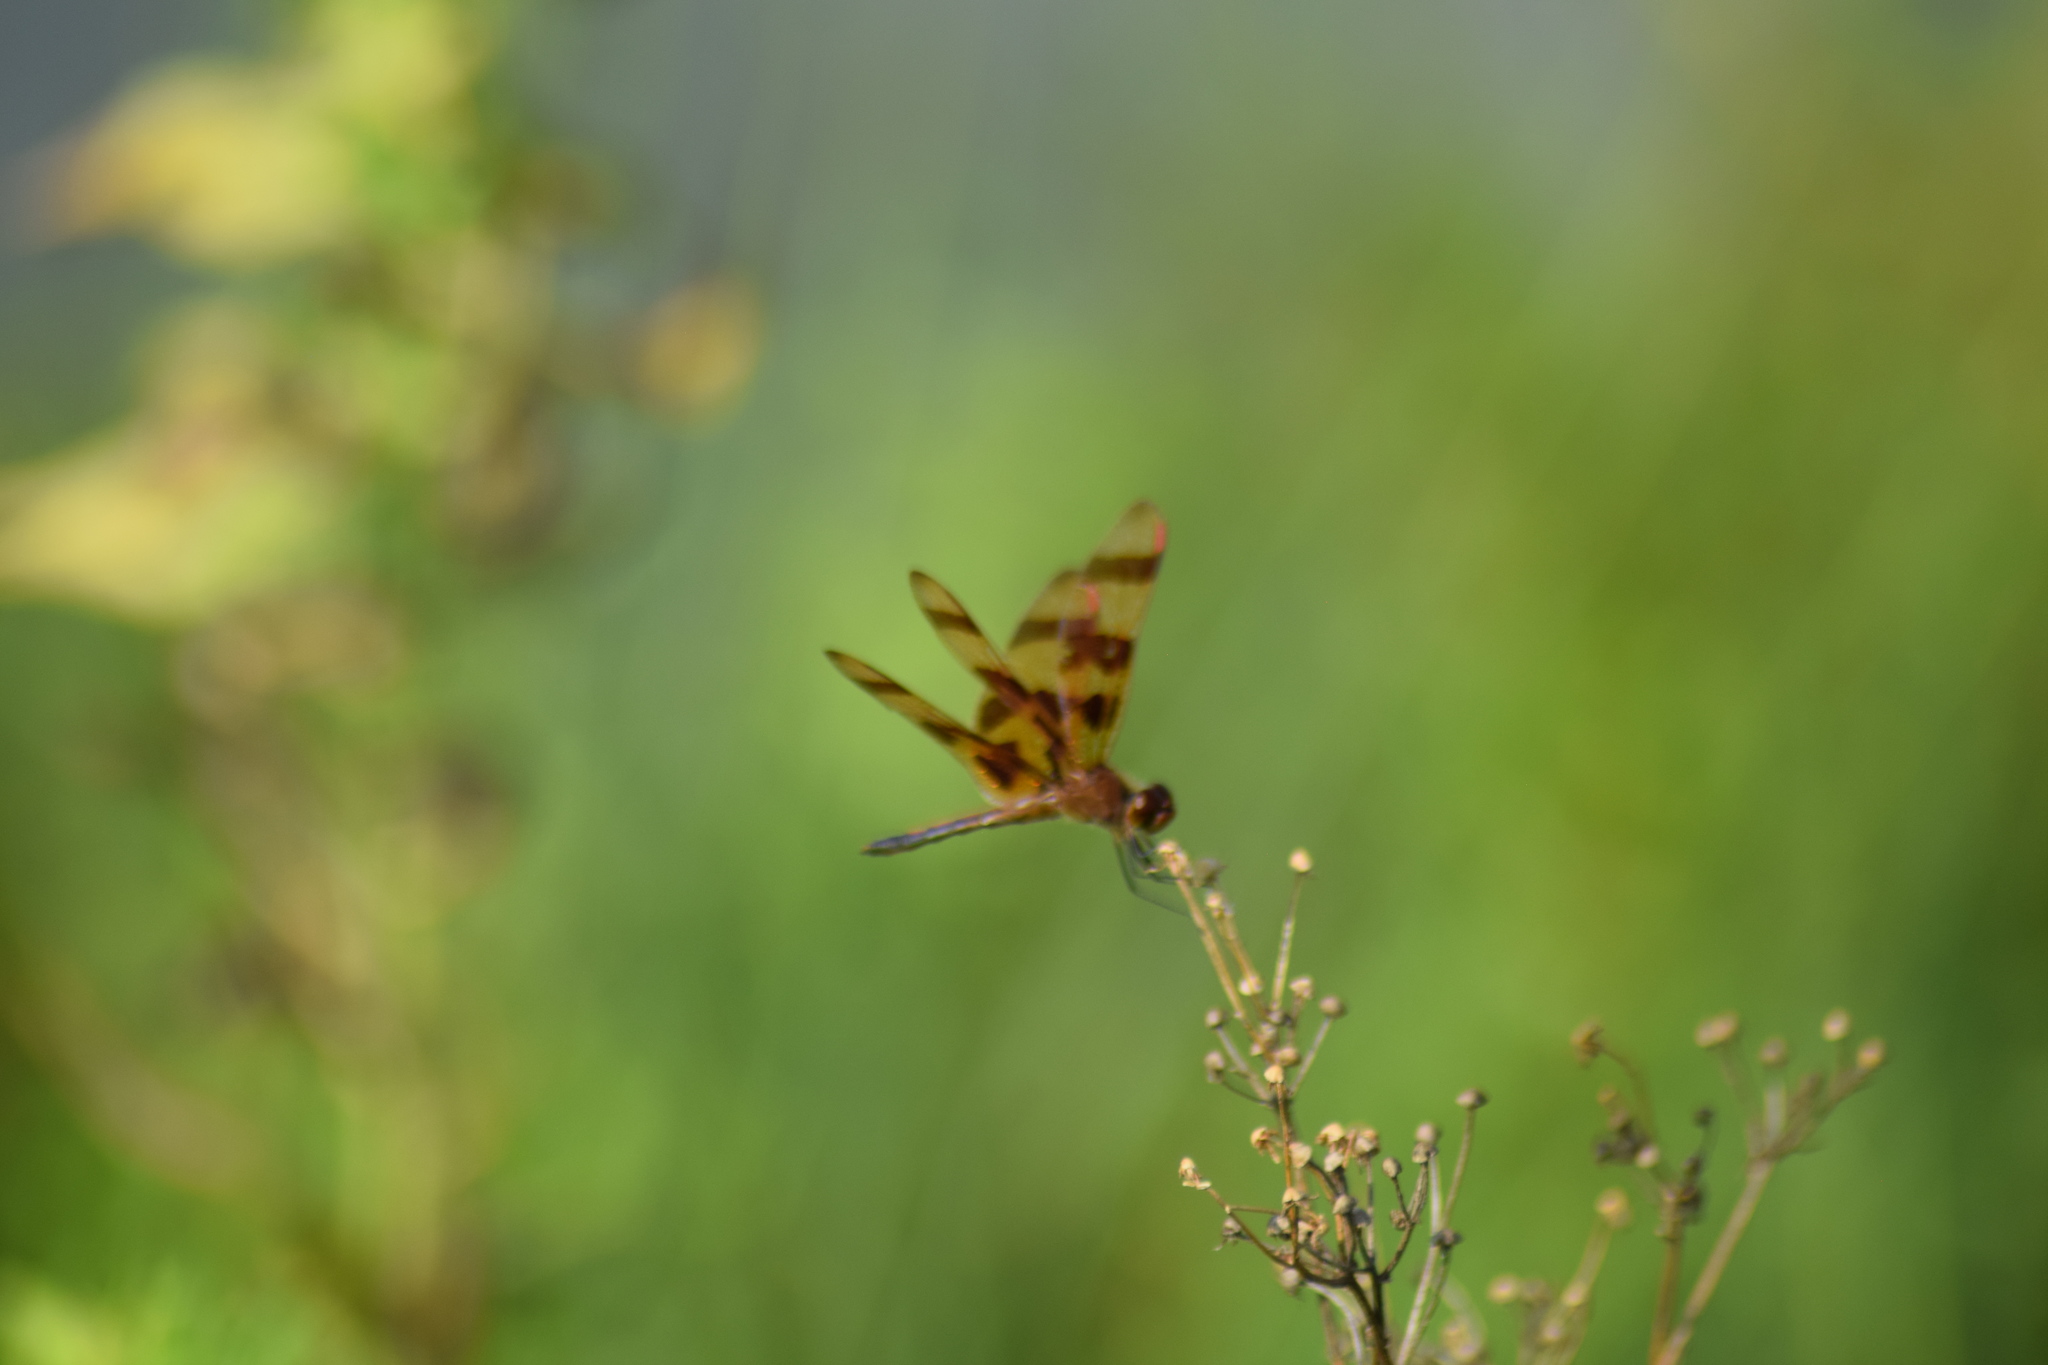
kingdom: Animalia
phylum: Arthropoda
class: Insecta
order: Odonata
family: Libellulidae
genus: Celithemis
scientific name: Celithemis eponina
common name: Halloween pennant
